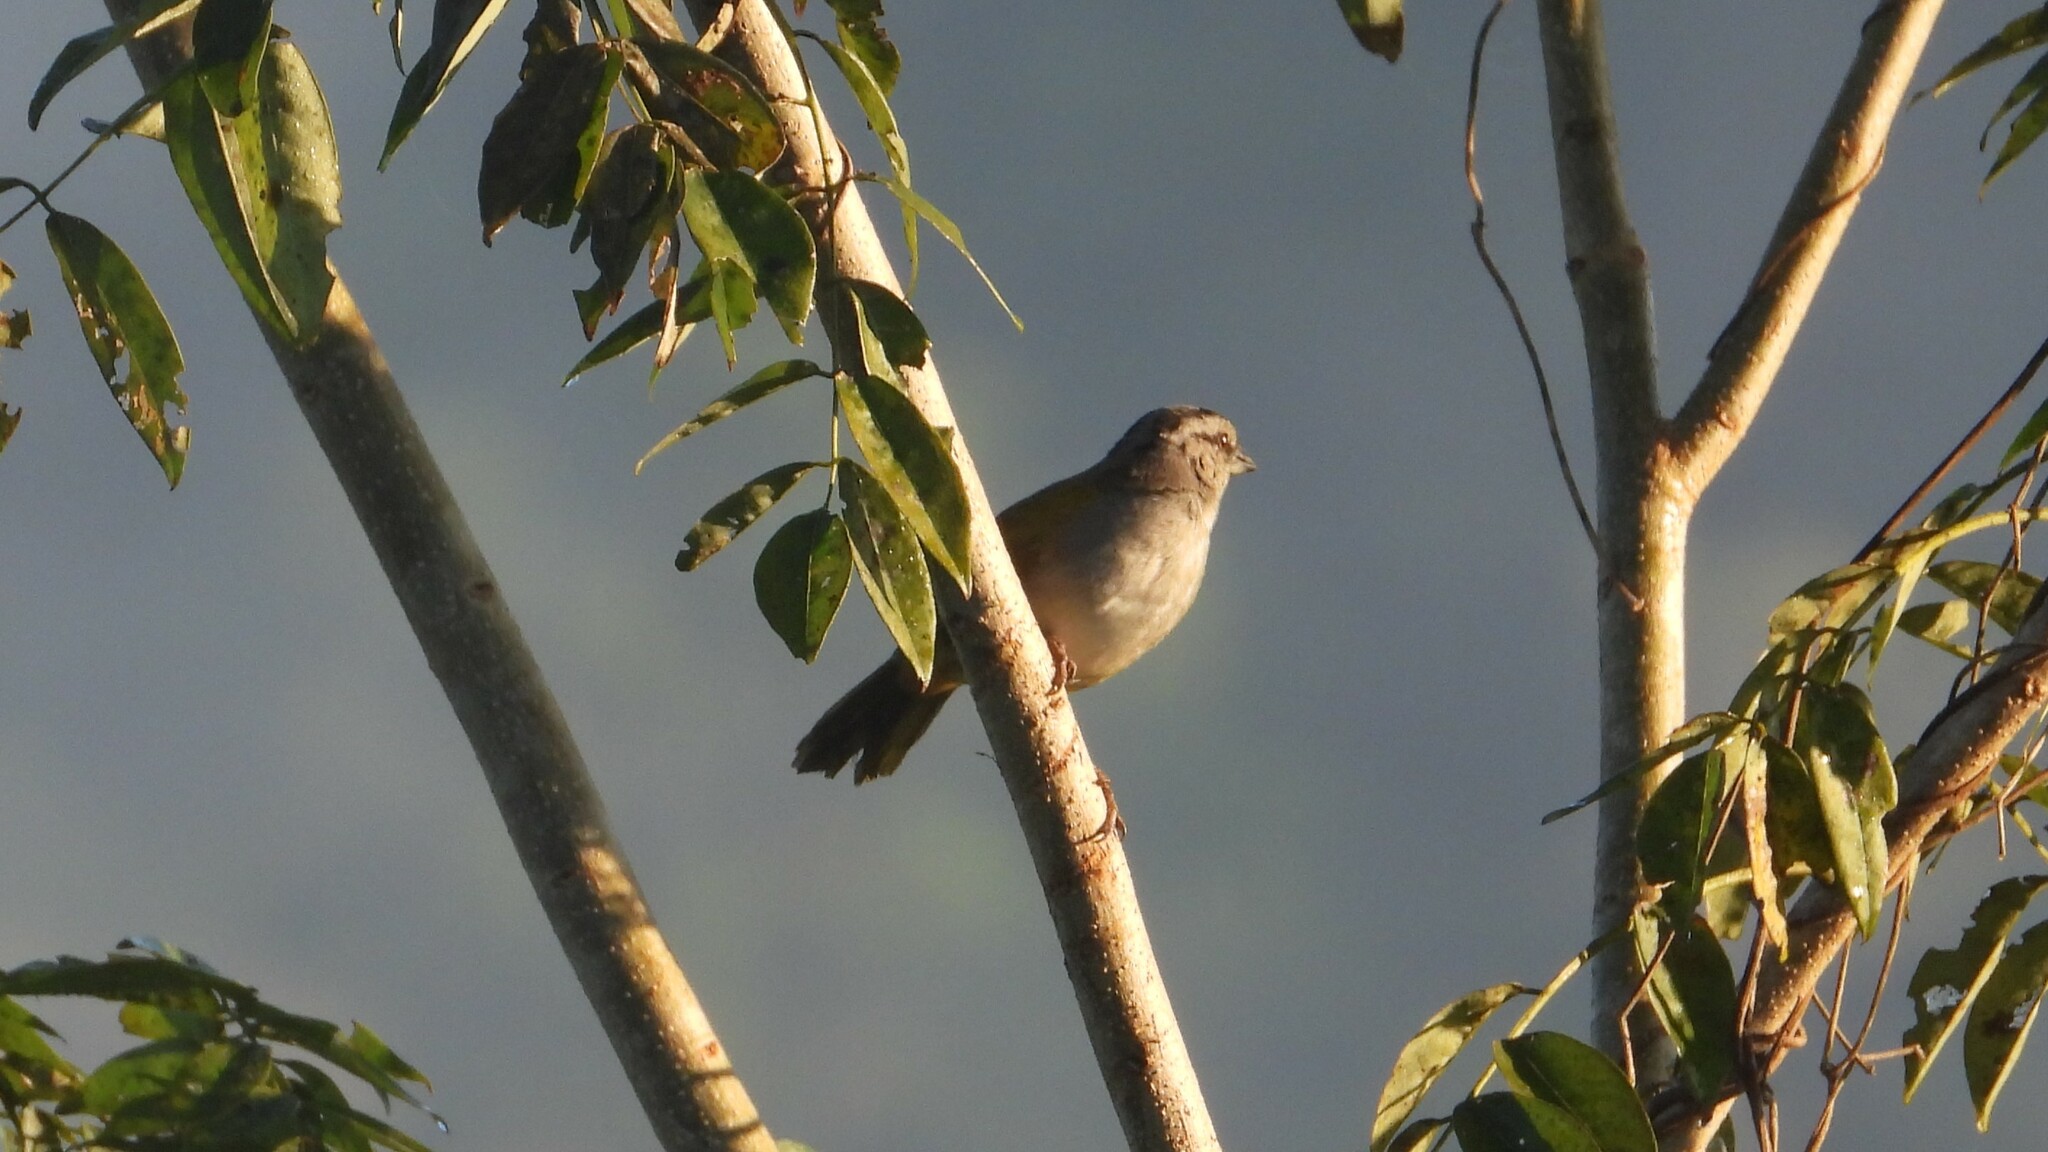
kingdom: Animalia
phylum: Chordata
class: Aves
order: Passeriformes
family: Passerellidae
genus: Arremonops
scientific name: Arremonops conirostris
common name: Black-striped sparrow
